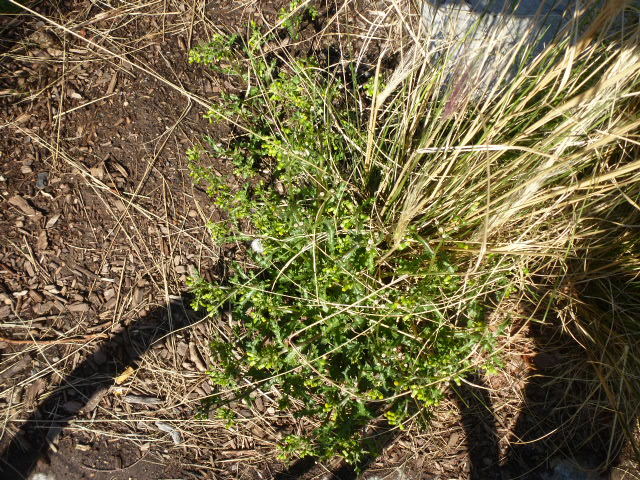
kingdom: Plantae
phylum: Tracheophyta
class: Magnoliopsida
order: Asterales
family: Asteraceae
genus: Senecio
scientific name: Senecio vulgaris
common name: Old-man-in-the-spring
